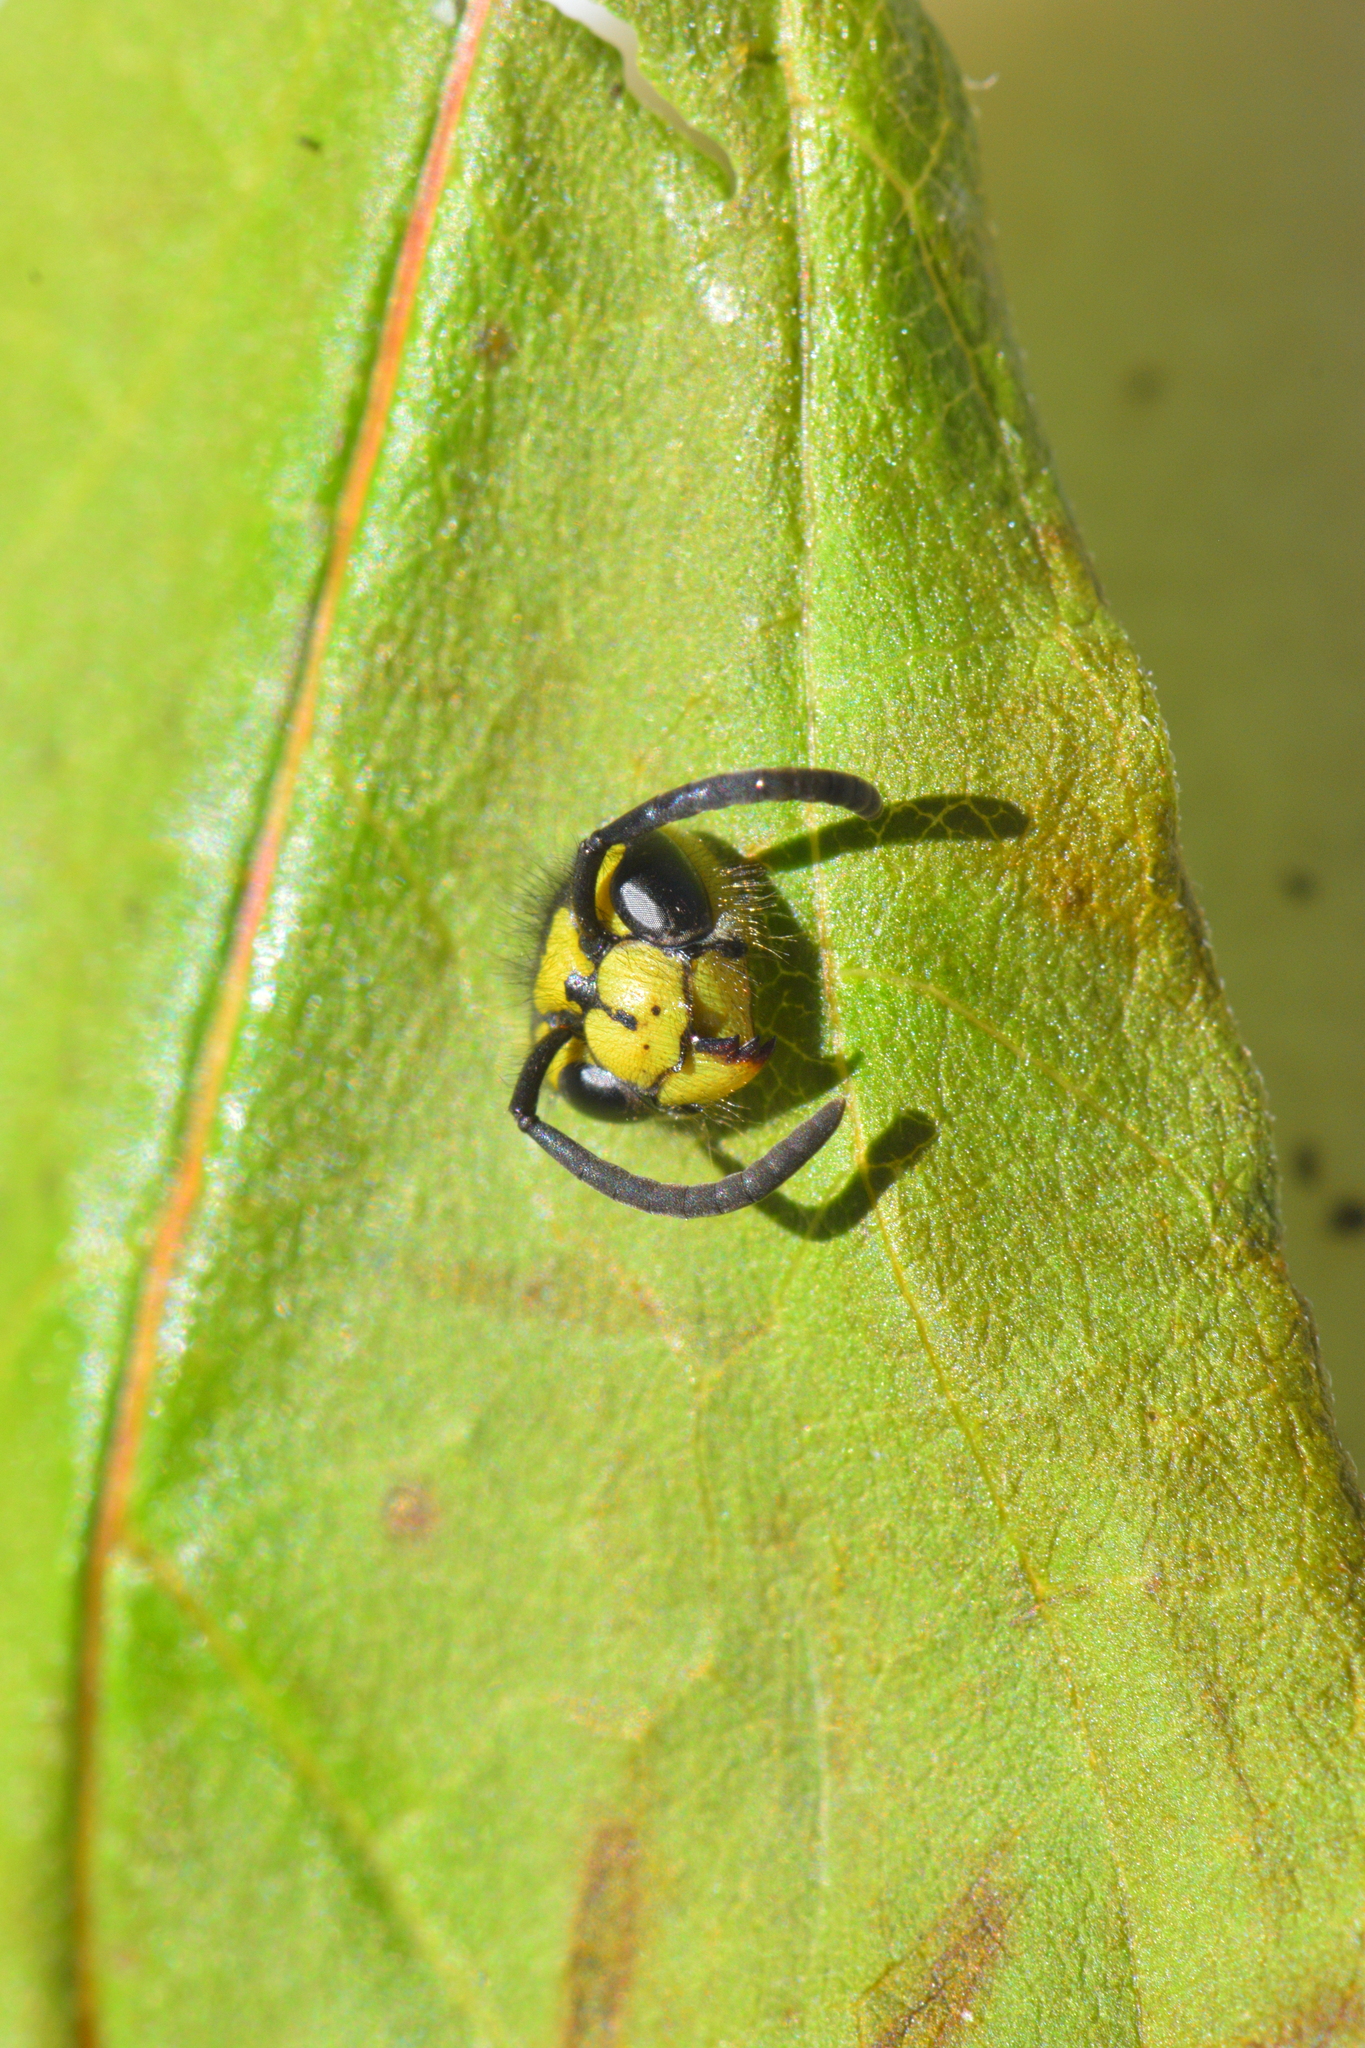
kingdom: Animalia
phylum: Arthropoda
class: Insecta
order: Hymenoptera
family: Vespidae
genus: Vespula
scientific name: Vespula
